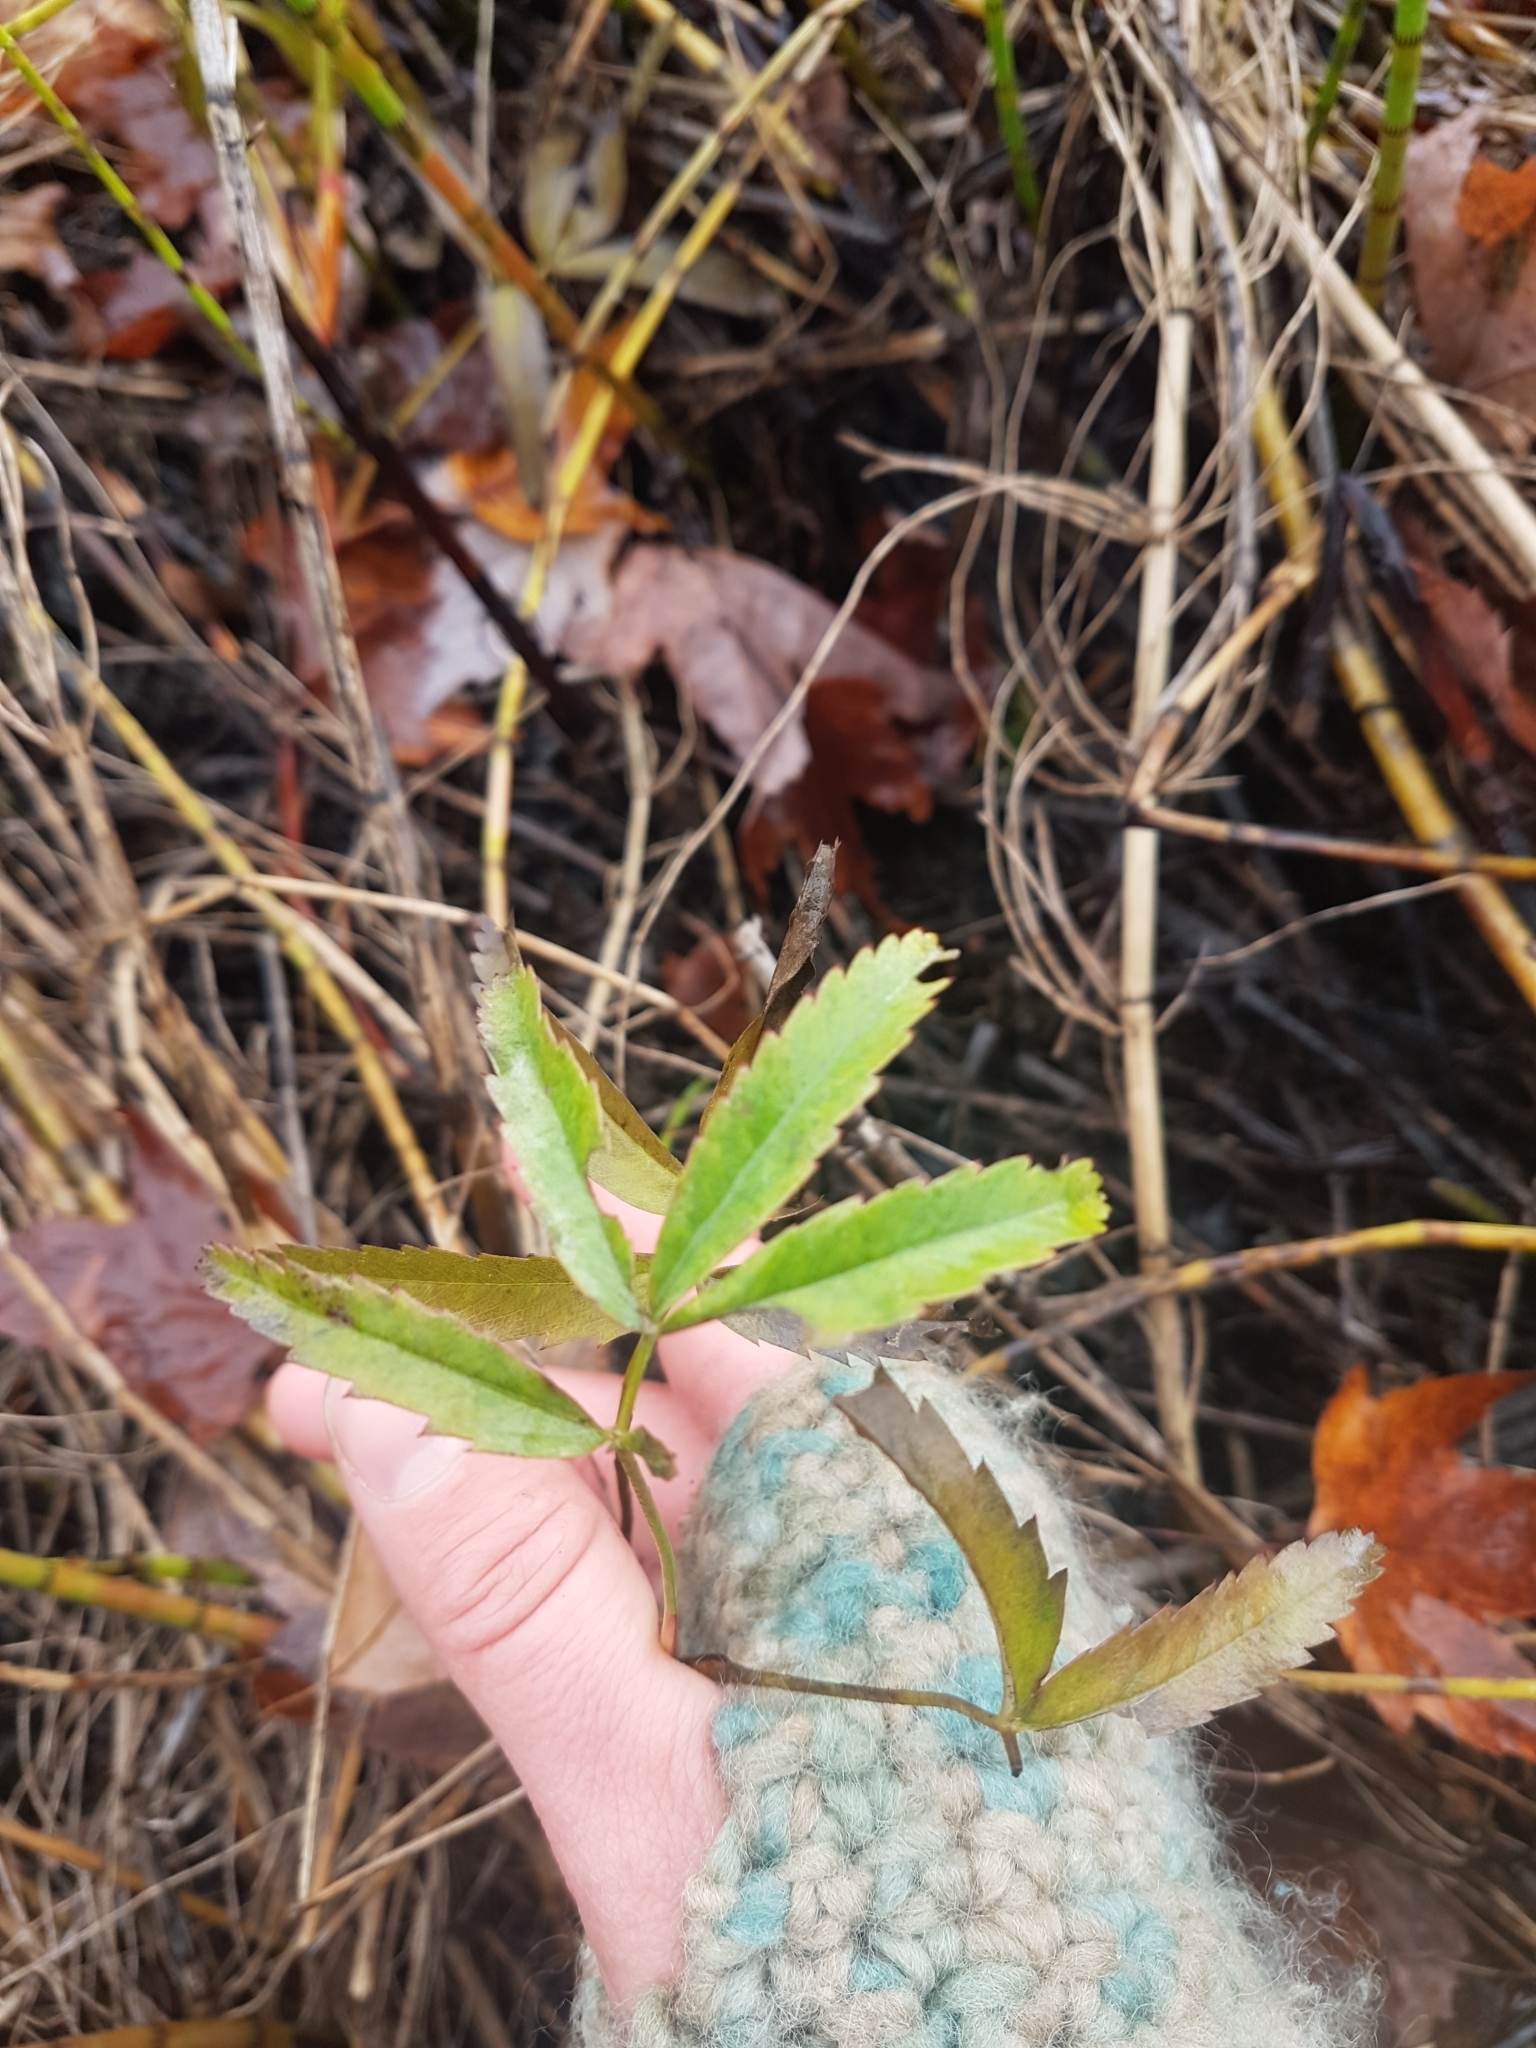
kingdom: Plantae
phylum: Tracheophyta
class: Magnoliopsida
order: Rosales
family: Rosaceae
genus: Comarum
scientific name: Comarum palustre
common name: Marsh cinquefoil
